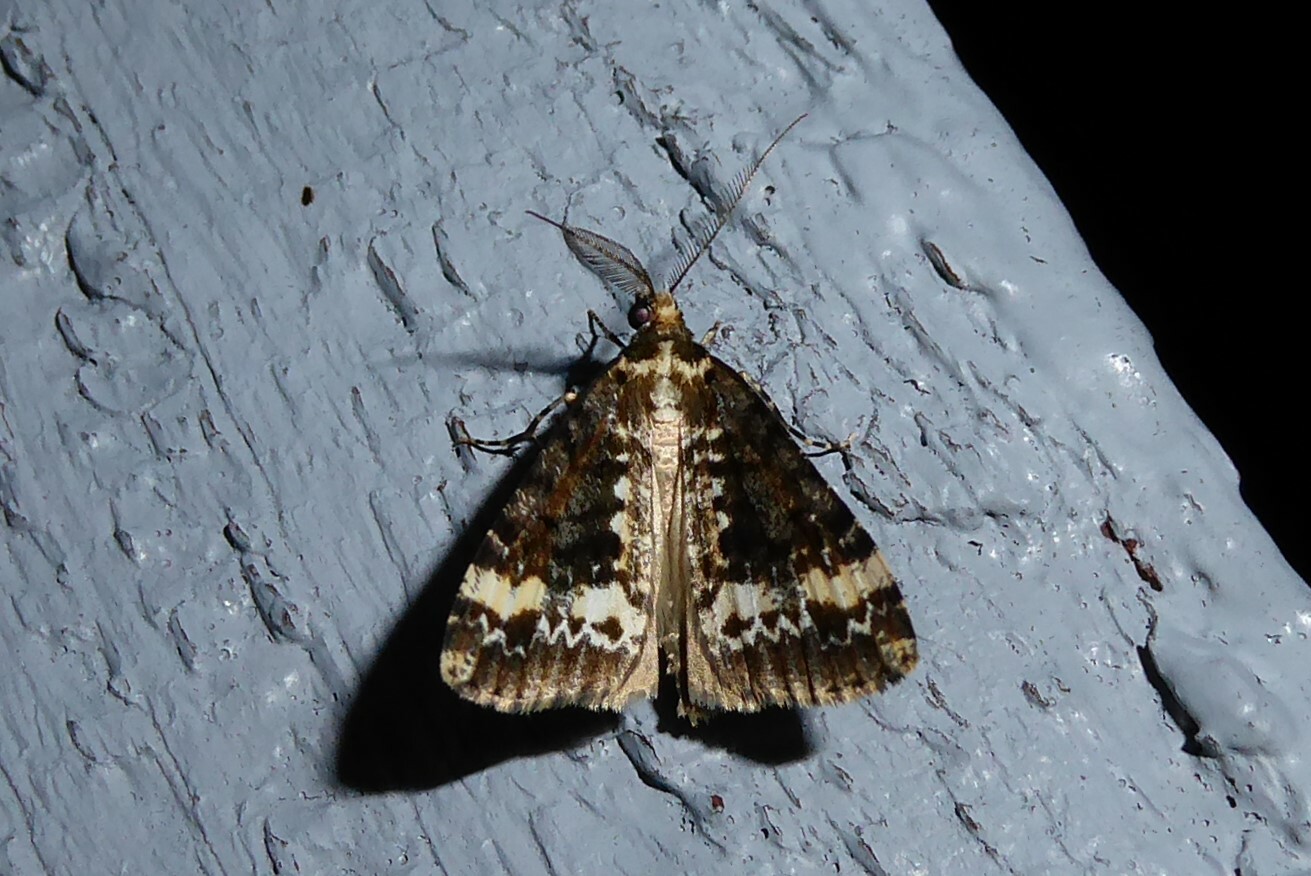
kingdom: Animalia
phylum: Arthropoda
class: Insecta
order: Lepidoptera
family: Geometridae
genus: Pseudocoremia
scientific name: Pseudocoremia leucelaea
